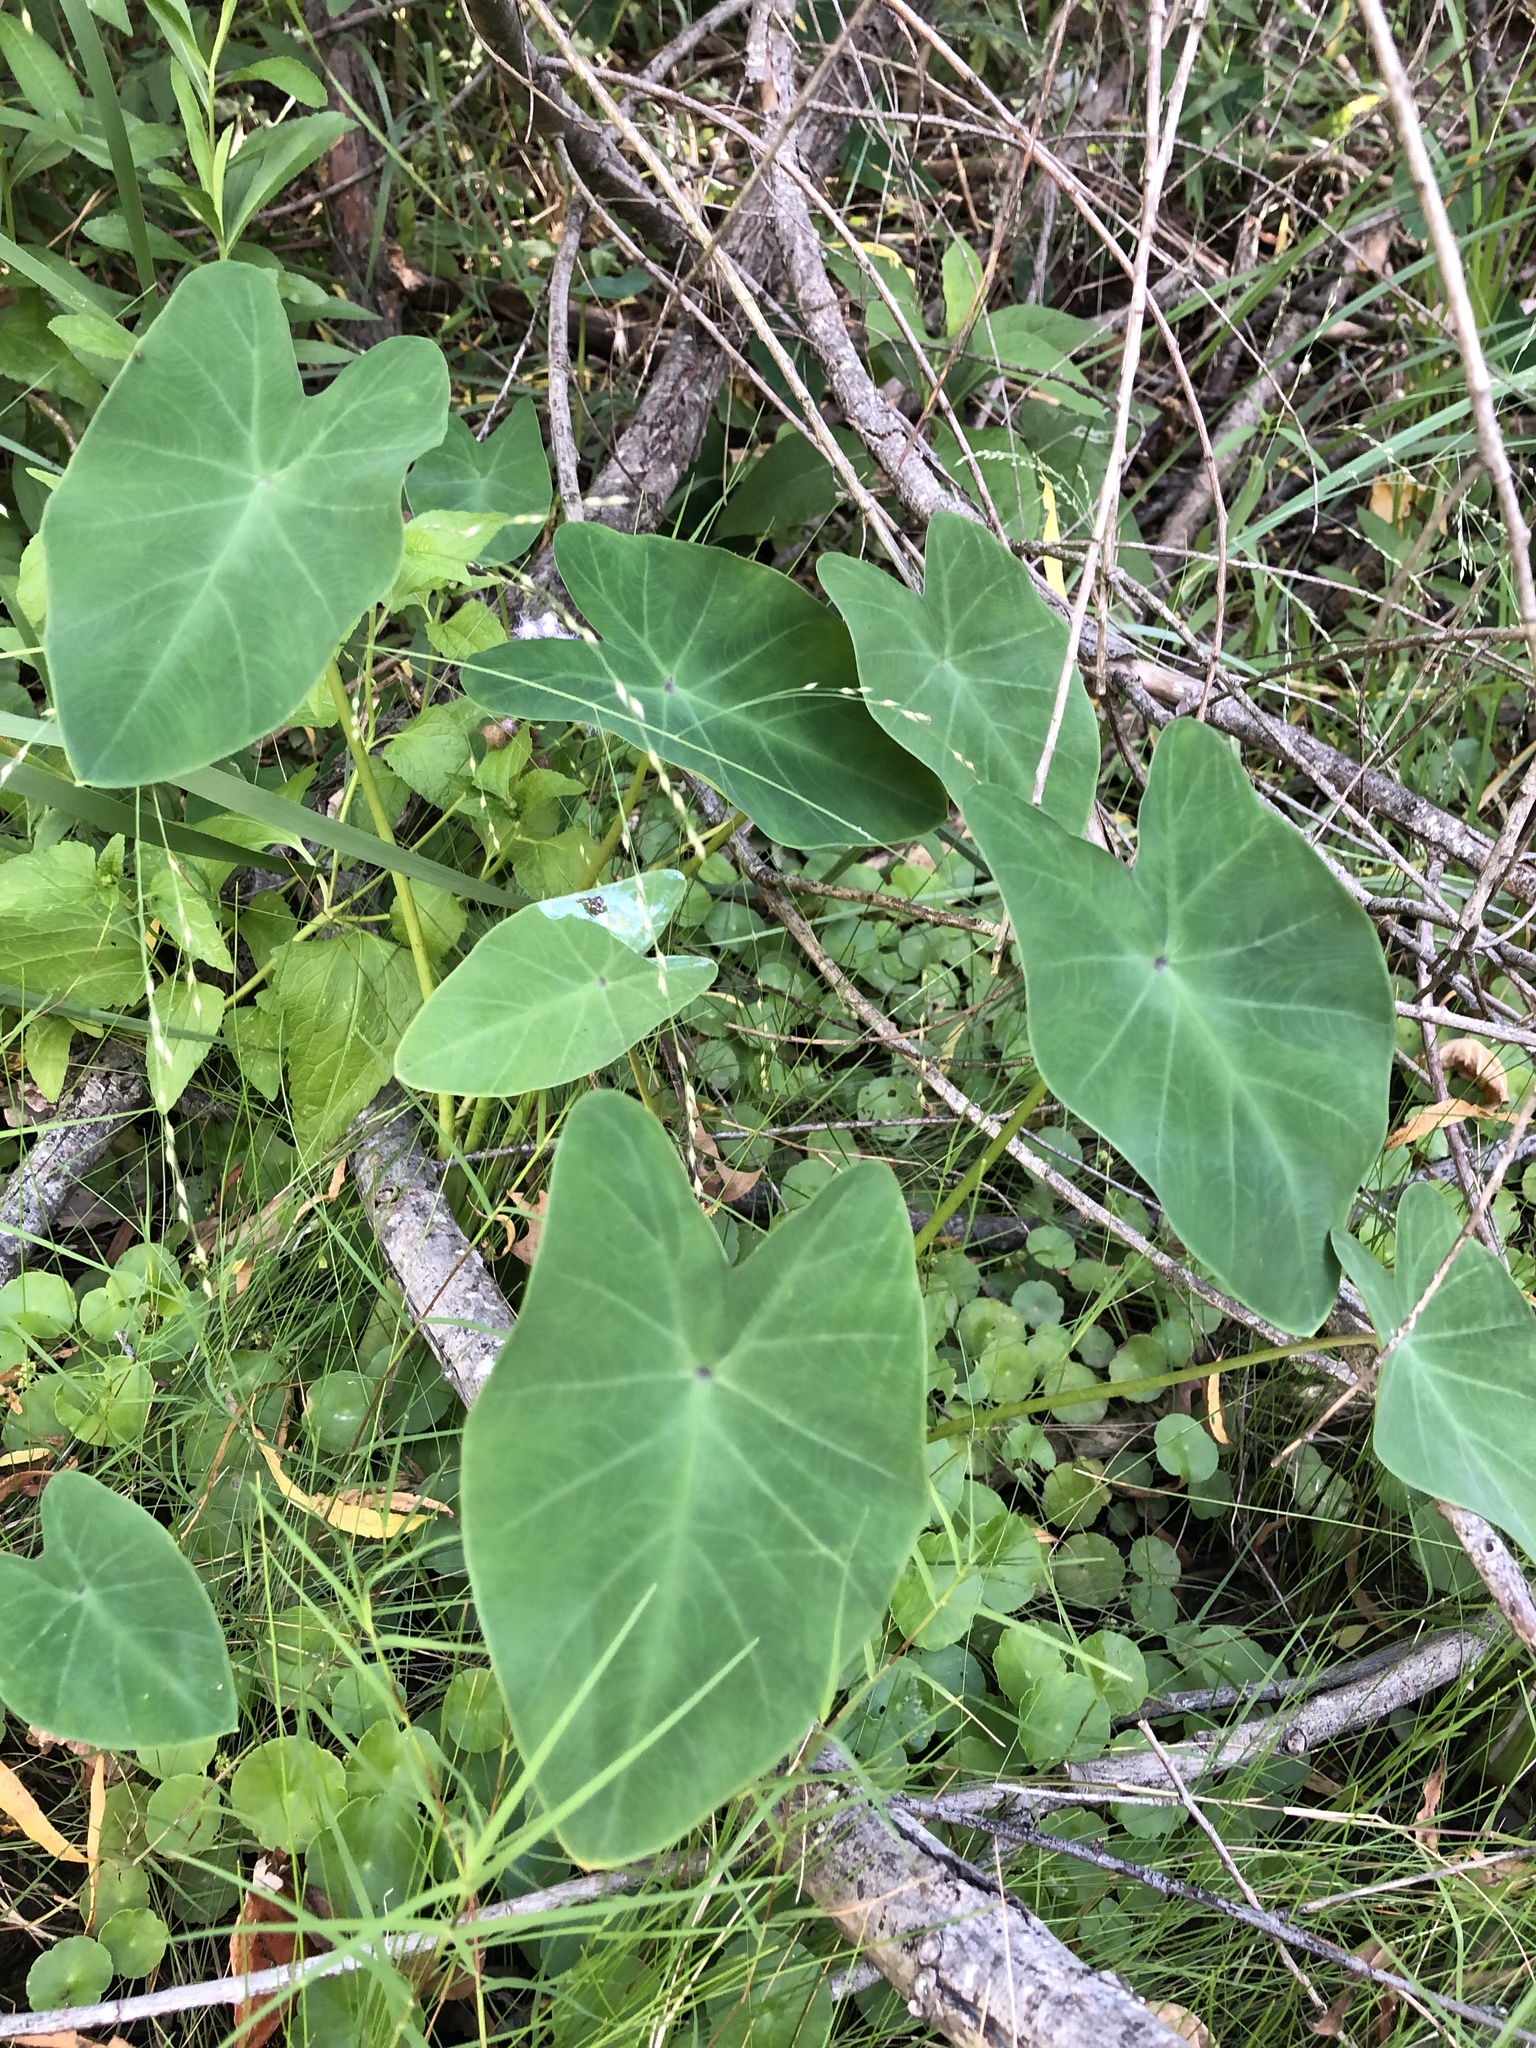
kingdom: Plantae
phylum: Tracheophyta
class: Liliopsida
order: Alismatales
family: Araceae
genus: Colocasia
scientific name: Colocasia esculenta
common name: Taro
